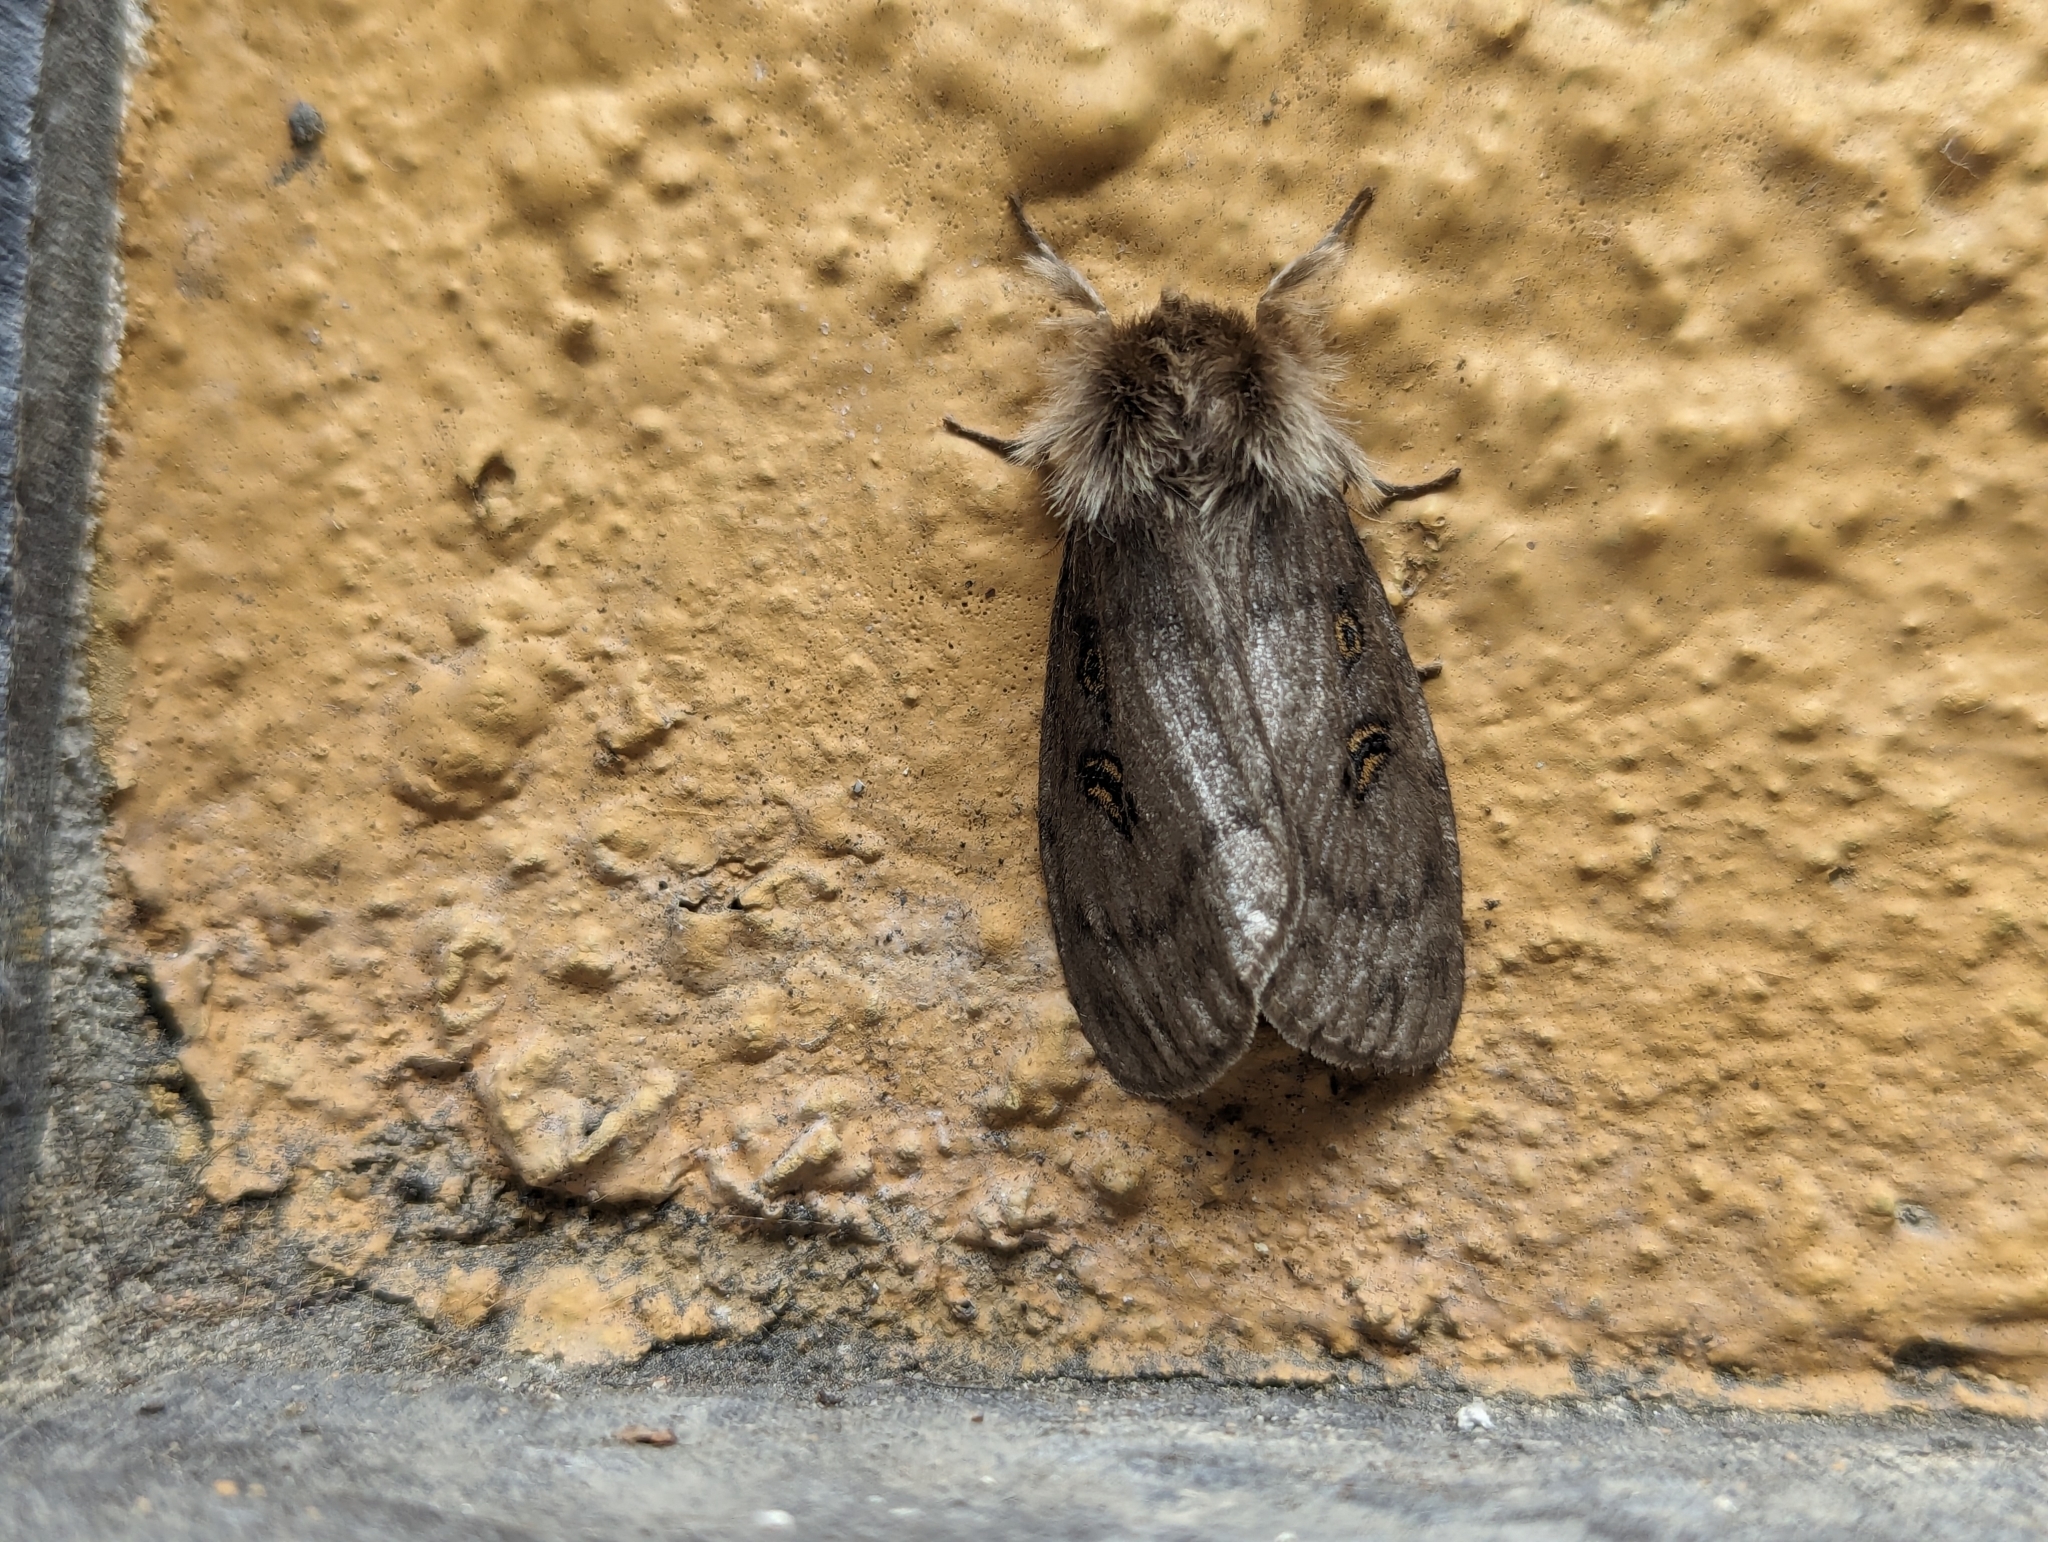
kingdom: Animalia
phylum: Arthropoda
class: Insecta
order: Lepidoptera
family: Erebidae
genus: Leptocneria
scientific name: Leptocneria reducta
